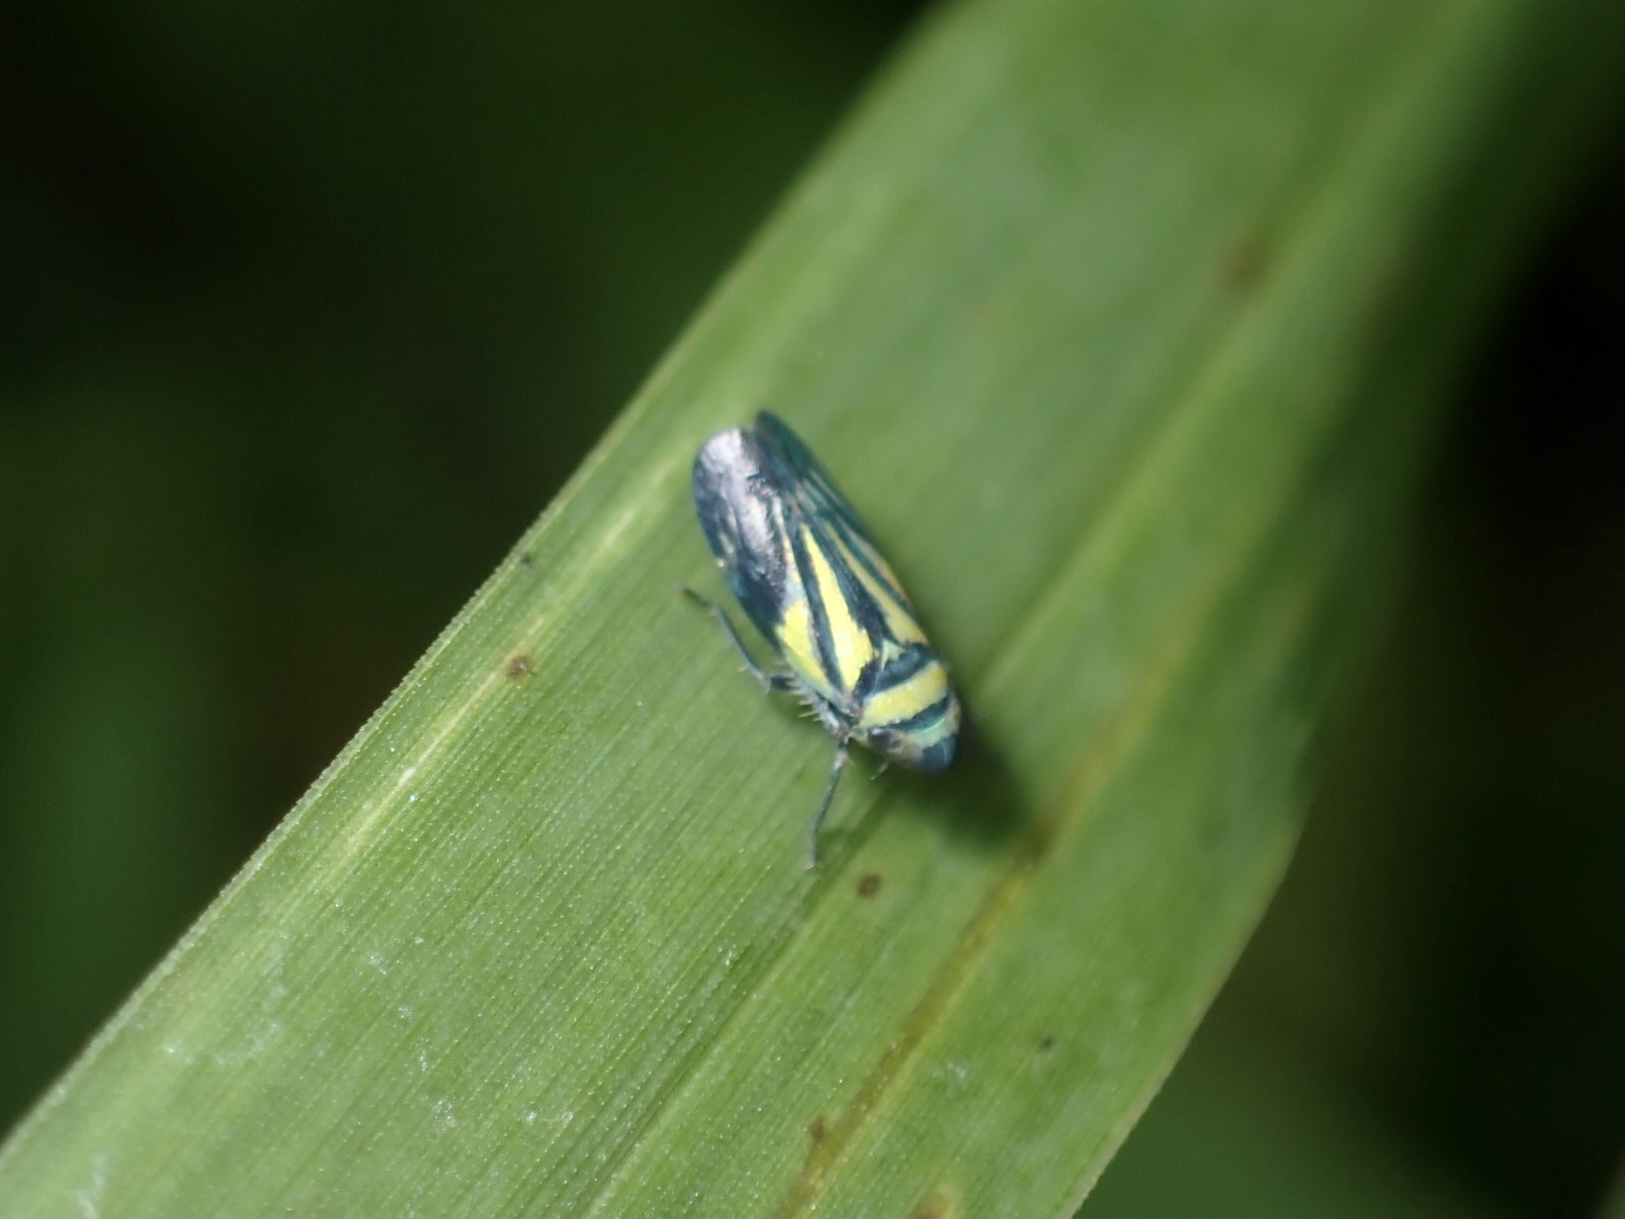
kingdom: Animalia
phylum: Arthropoda
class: Insecta
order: Hemiptera
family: Cicadellidae
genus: Stirellus
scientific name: Stirellus bicolor
